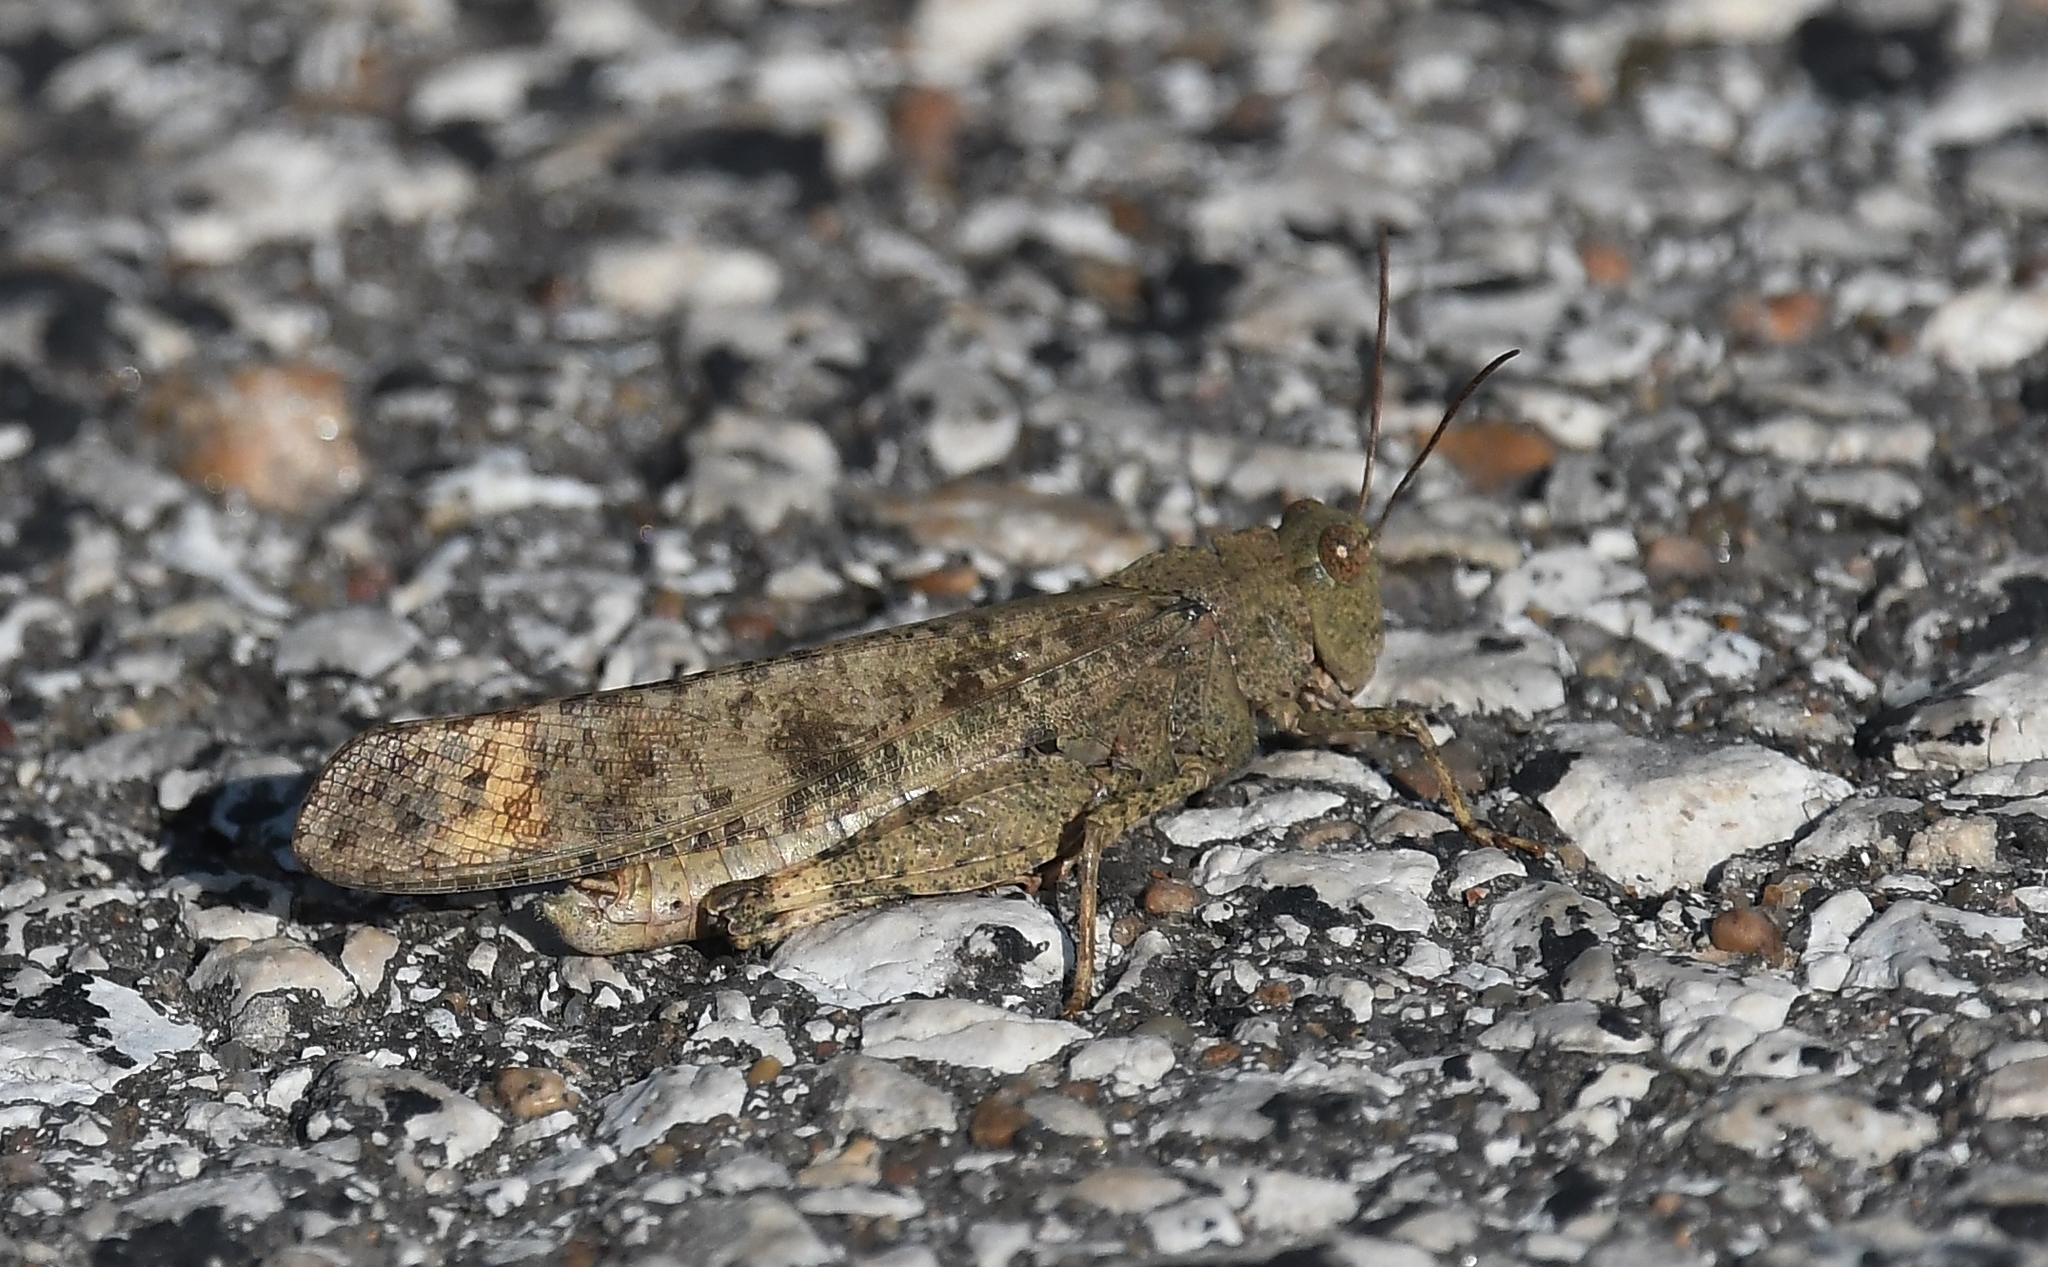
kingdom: Animalia
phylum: Arthropoda
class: Insecta
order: Orthoptera
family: Acrididae
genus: Dissosteira
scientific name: Dissosteira carolina
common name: Carolina grasshopper
